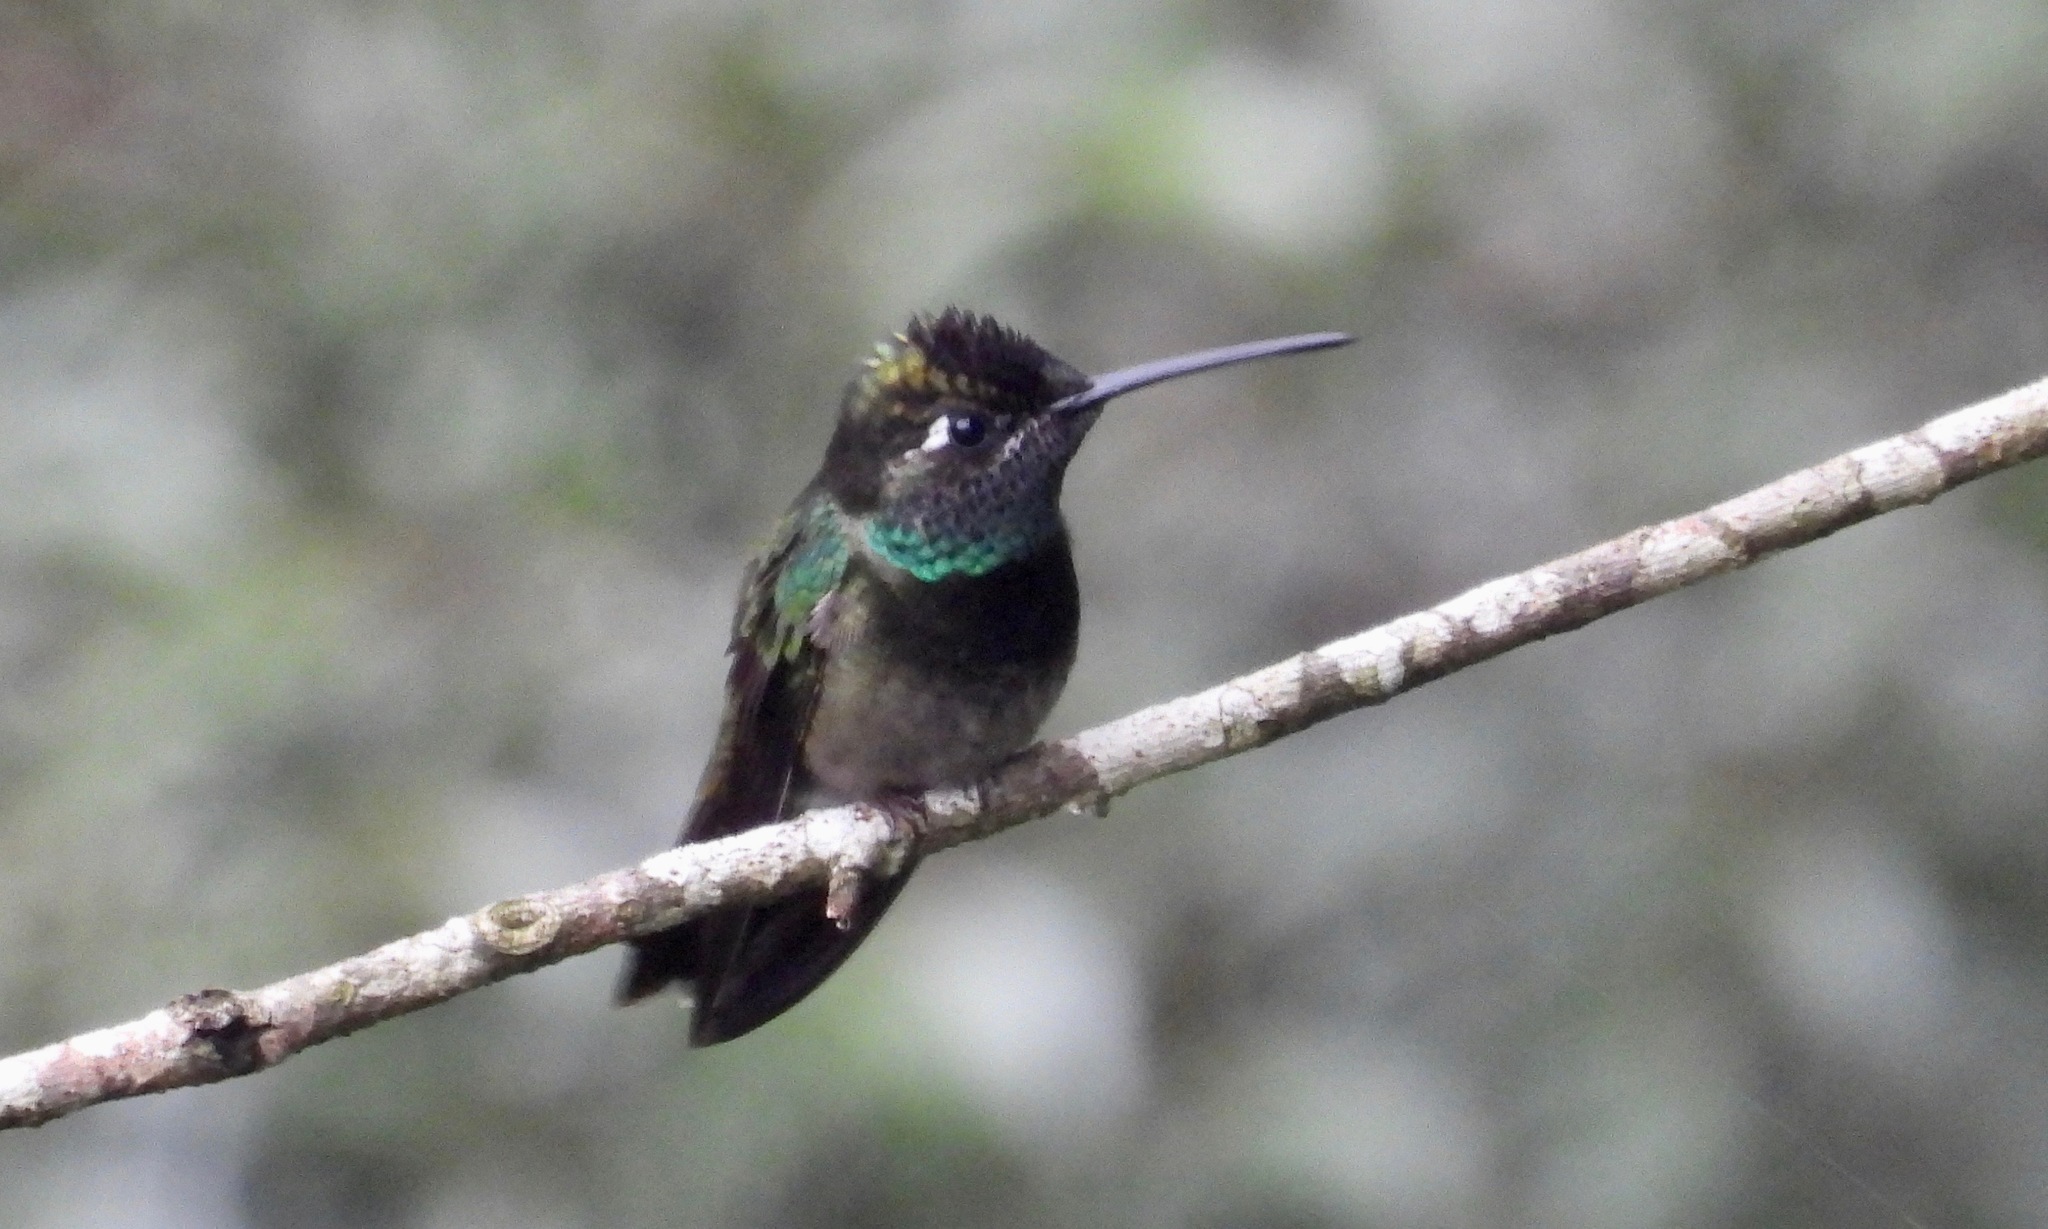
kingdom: Animalia
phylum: Chordata
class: Aves
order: Apodiformes
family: Trochilidae
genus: Eugenes
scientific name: Eugenes fulgens
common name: Magnificent hummingbird
